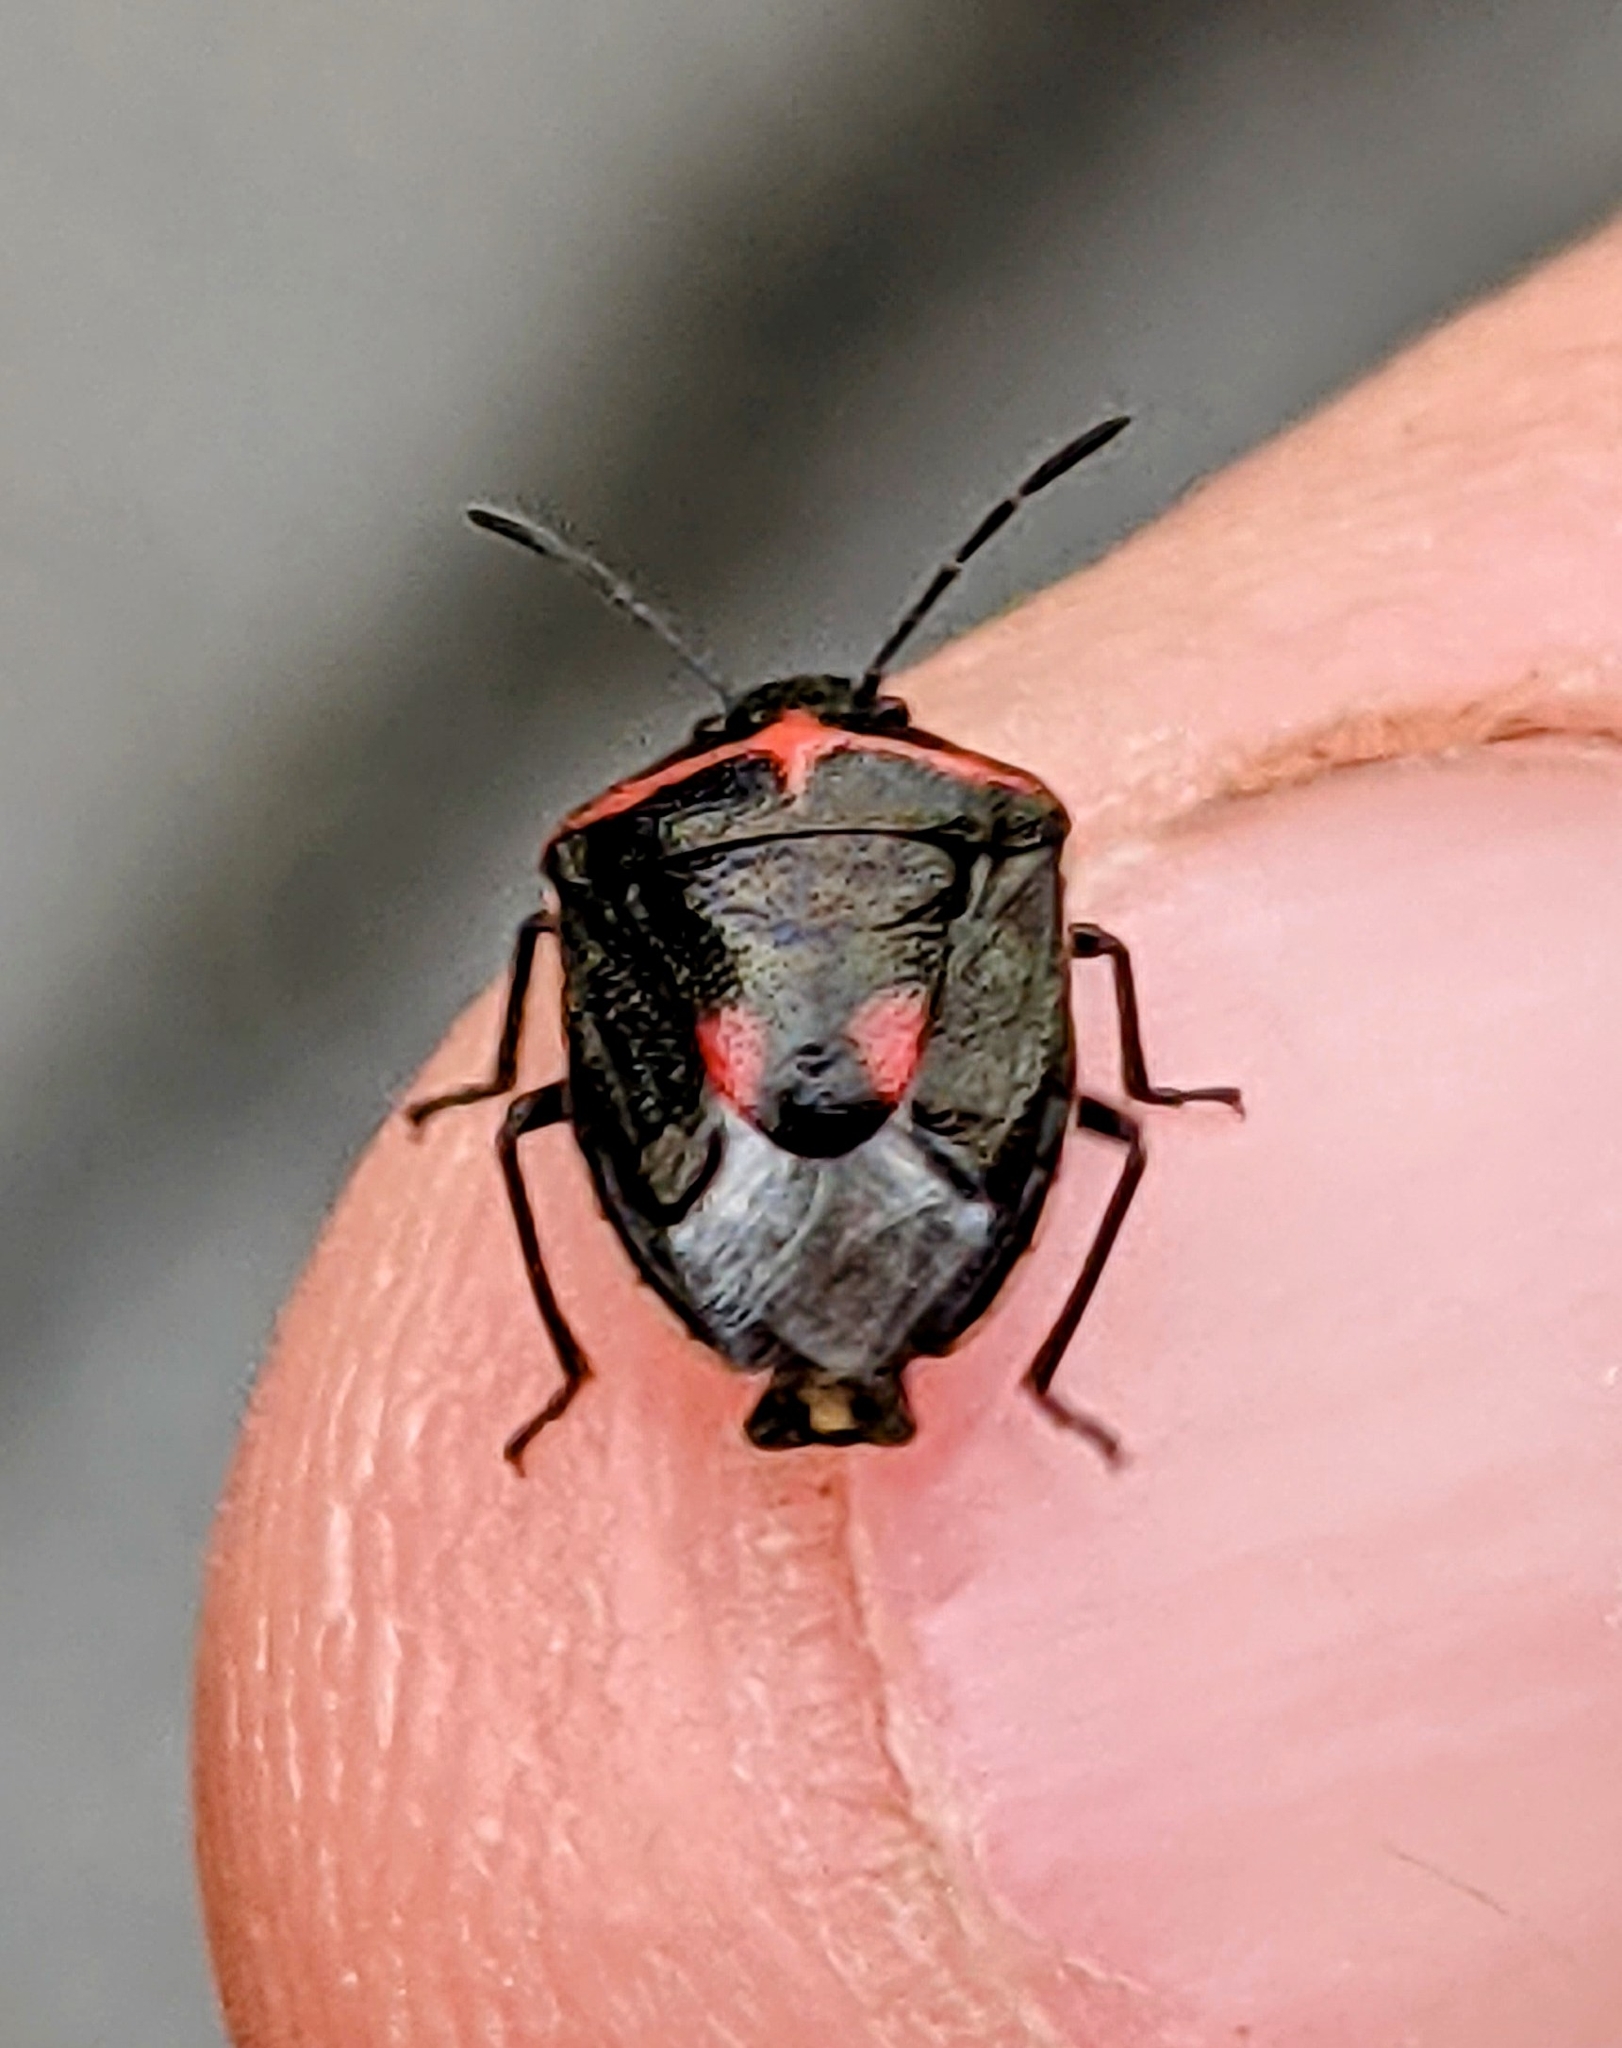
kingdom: Animalia
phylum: Arthropoda
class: Insecta
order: Hemiptera
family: Pentatomidae
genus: Cosmopepla
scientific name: Cosmopepla lintneriana
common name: Twice-stabbed stink bug
